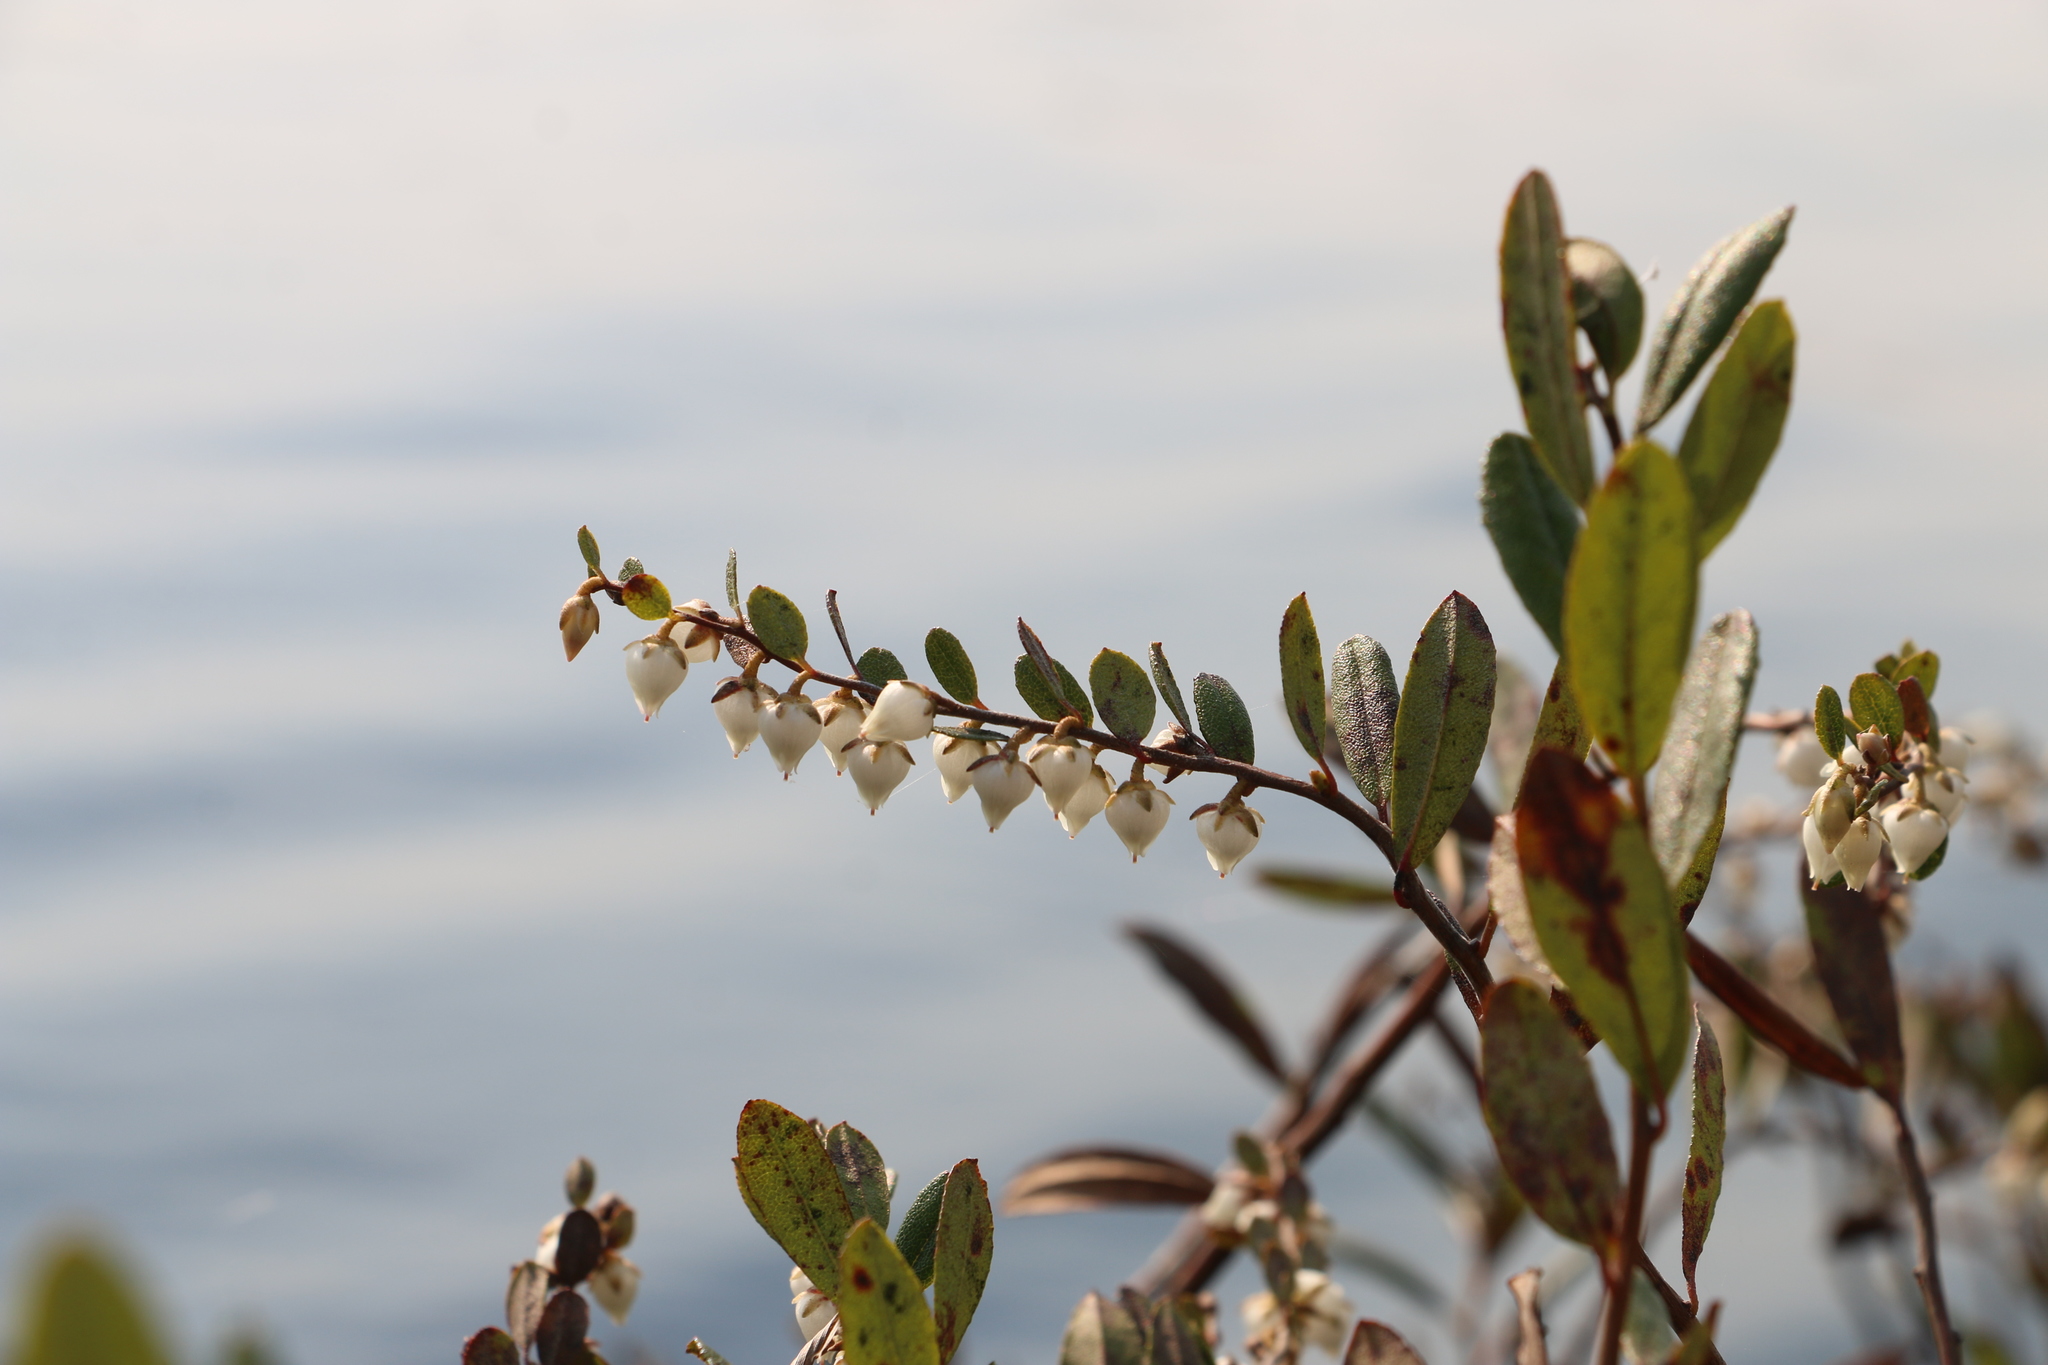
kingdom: Plantae
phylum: Tracheophyta
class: Magnoliopsida
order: Ericales
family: Ericaceae
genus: Chamaedaphne
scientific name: Chamaedaphne calyculata
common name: Leatherleaf
